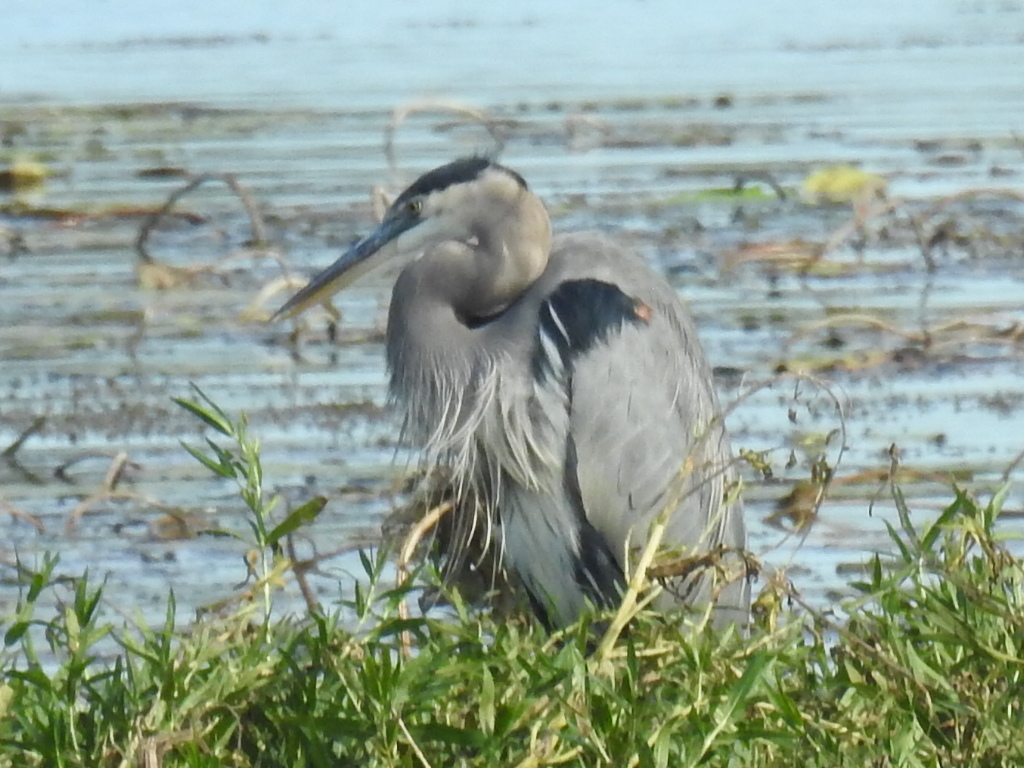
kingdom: Animalia
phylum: Chordata
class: Aves
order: Pelecaniformes
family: Ardeidae
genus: Ardea
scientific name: Ardea herodias
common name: Great blue heron
